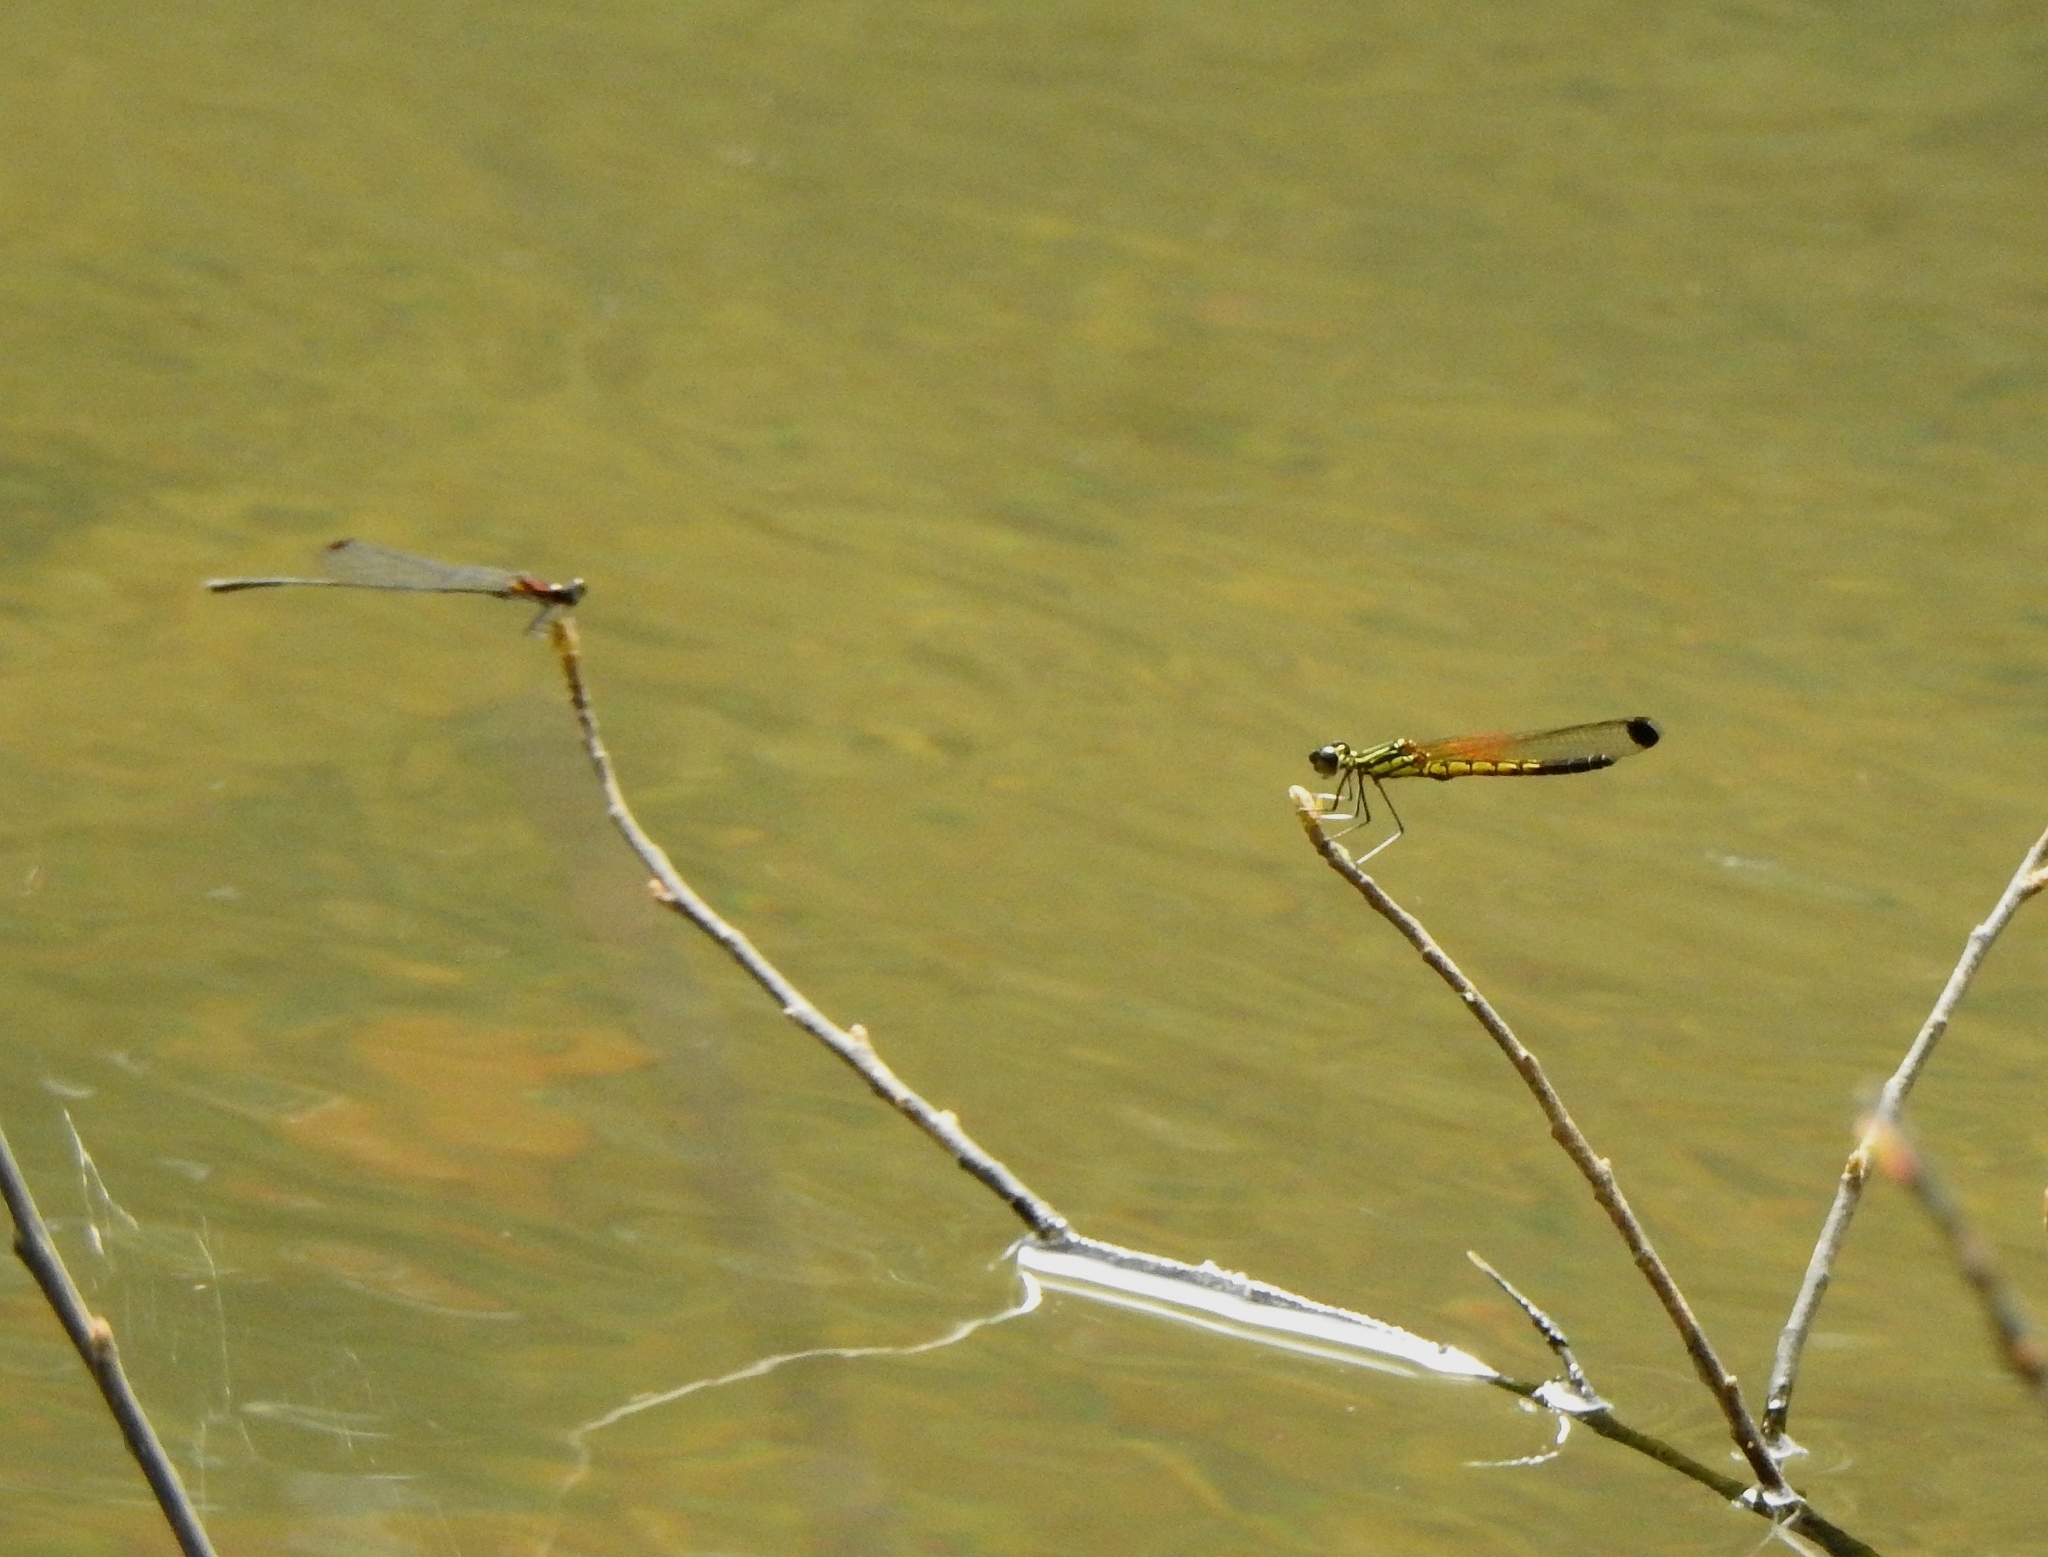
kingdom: Animalia
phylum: Arthropoda
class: Insecta
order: Odonata
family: Platycnemididae
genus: Prodasineura
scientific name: Prodasineura verticalis
